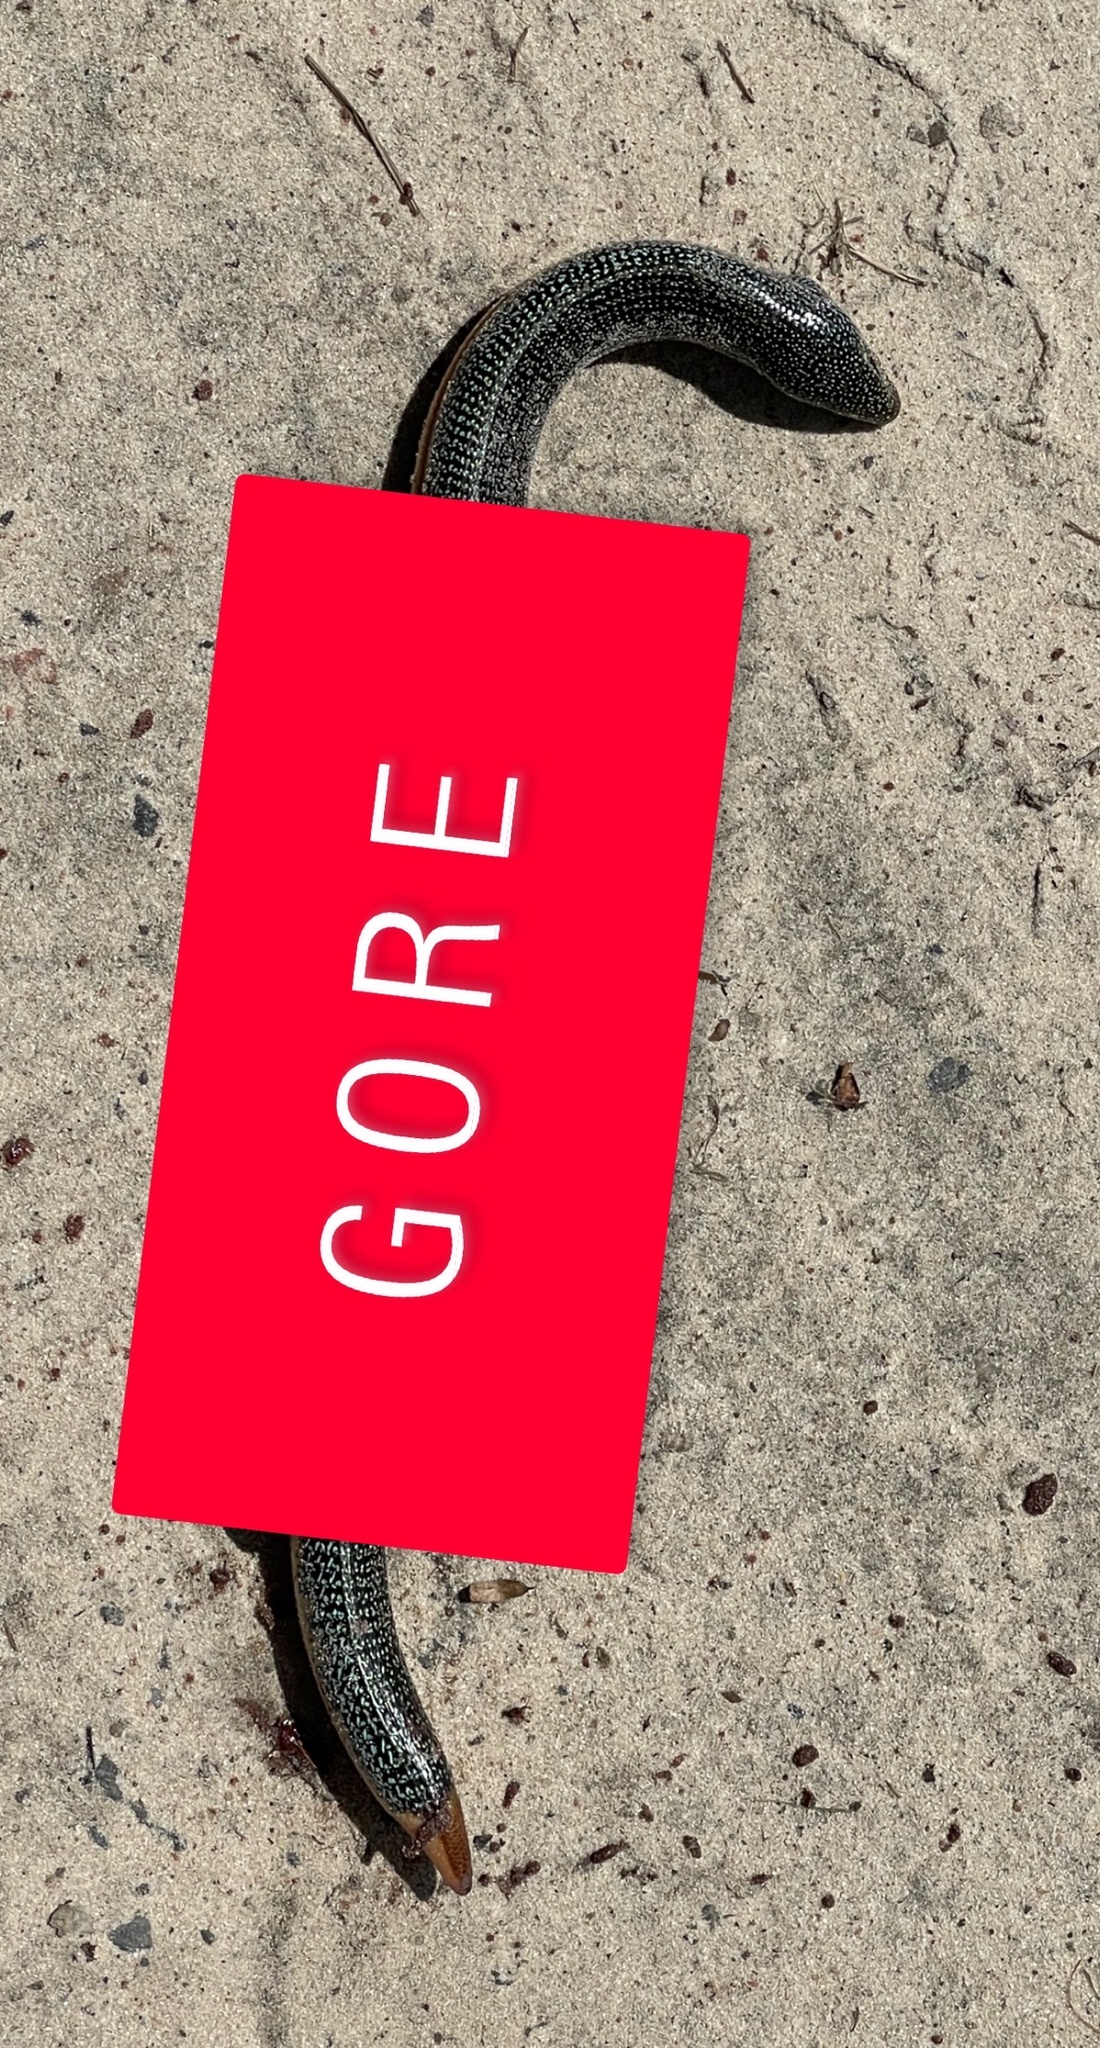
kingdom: Animalia
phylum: Chordata
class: Squamata
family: Anguidae
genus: Ophisaurus
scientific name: Ophisaurus ventralis
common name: Eastern glass lizard
